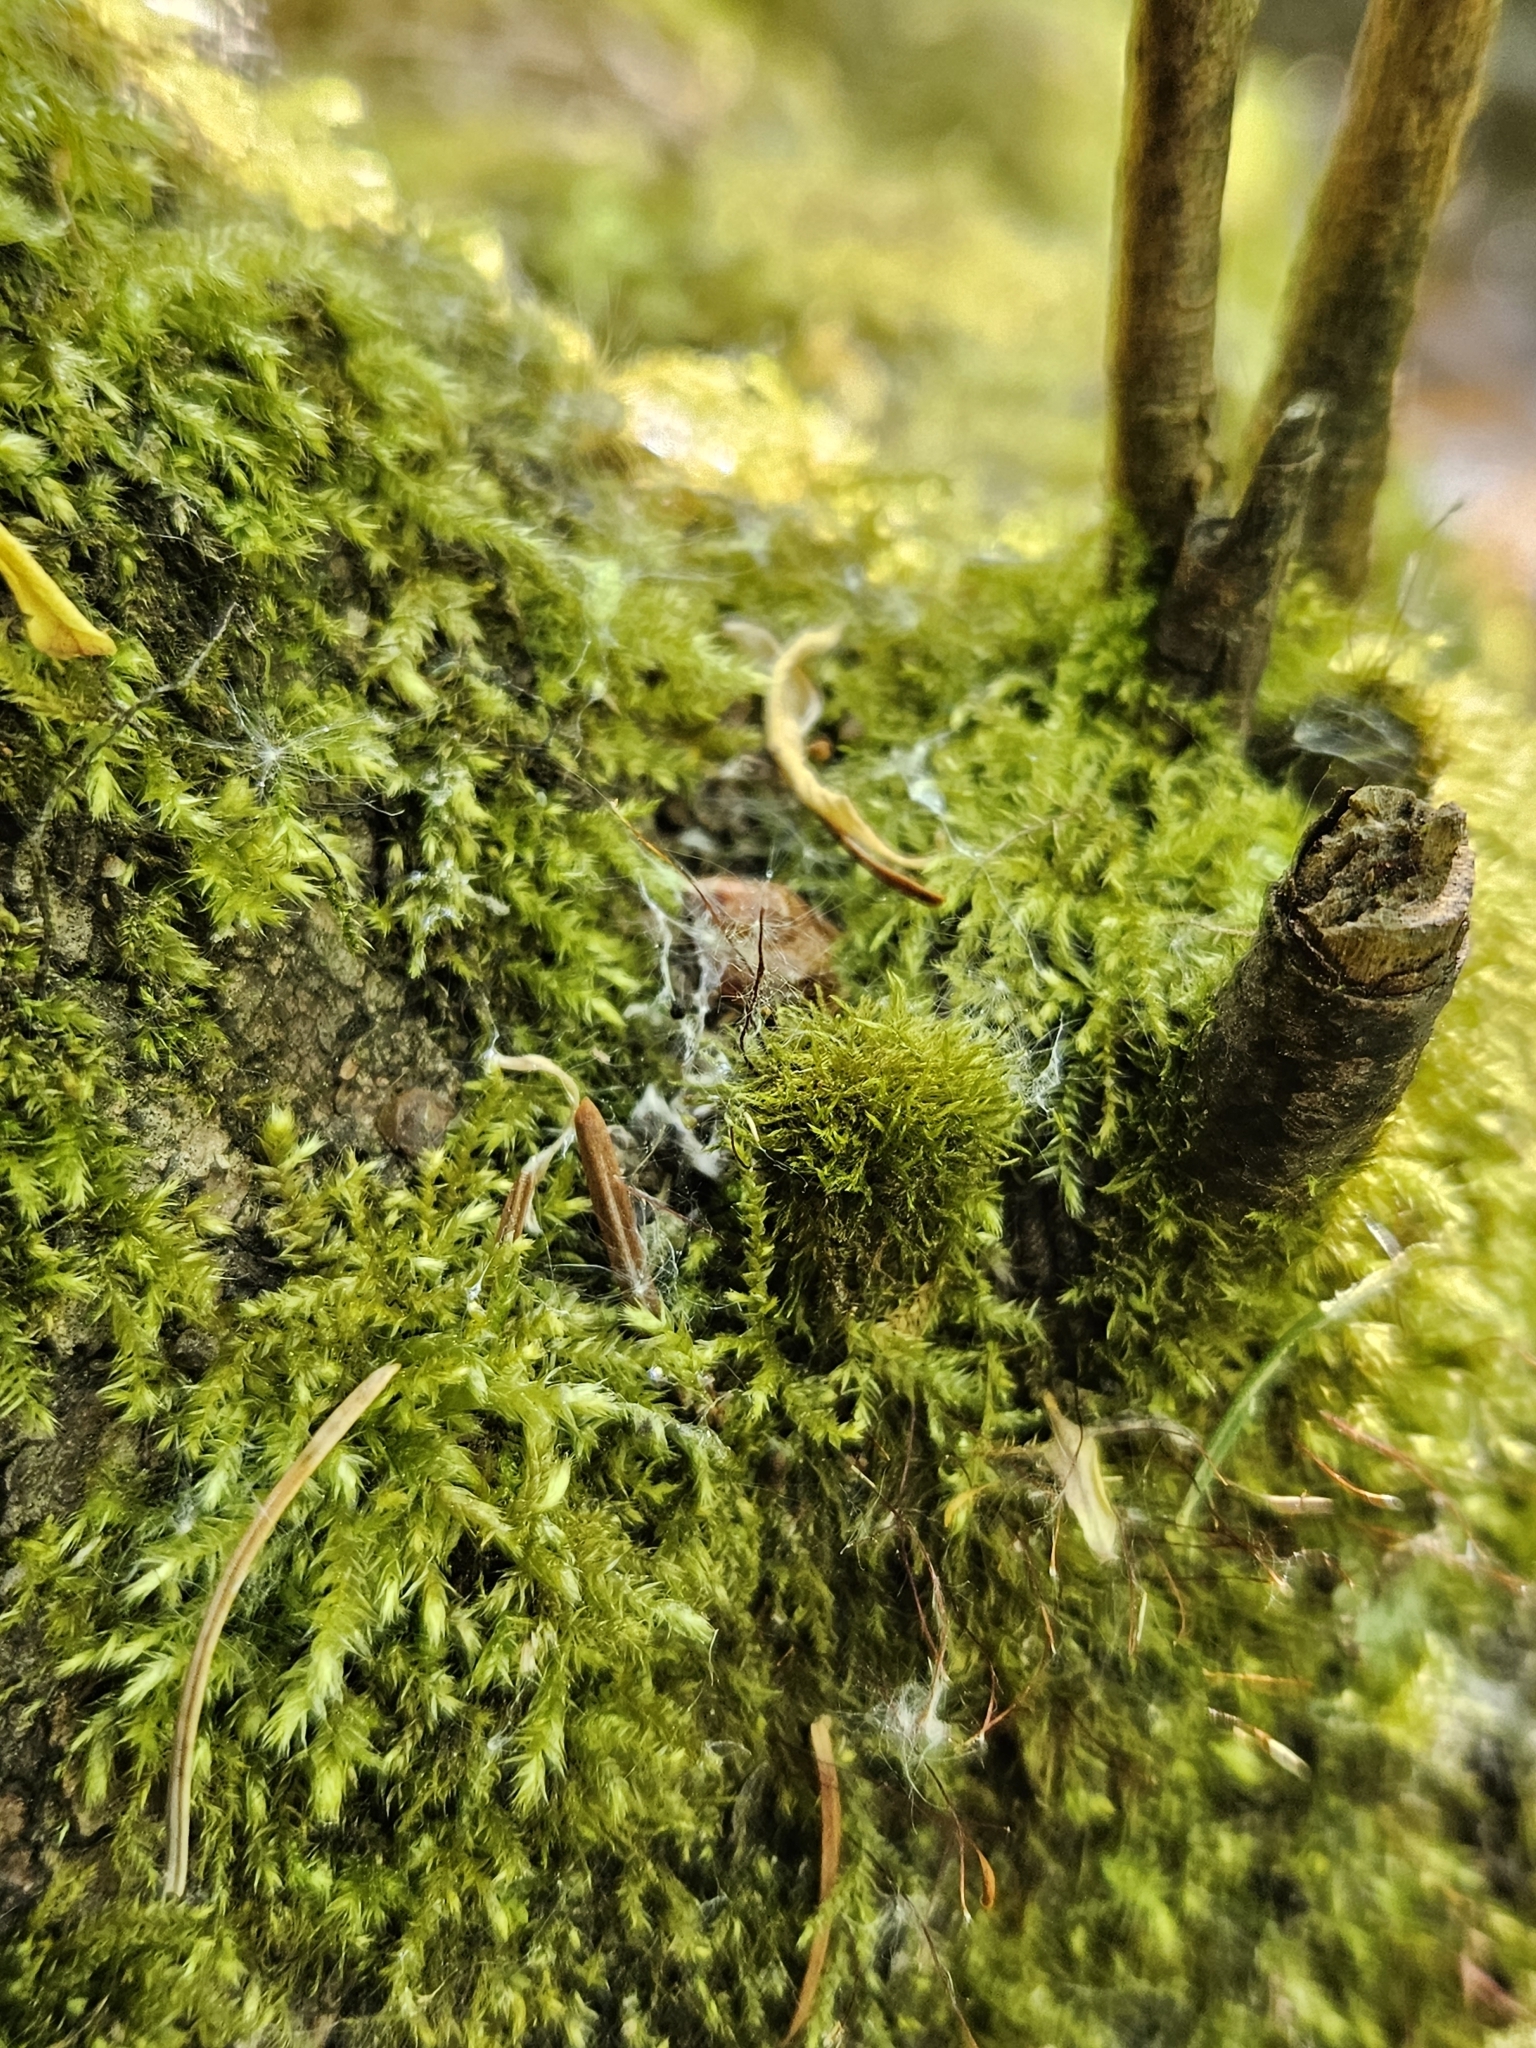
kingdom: Plantae
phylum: Bryophyta
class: Bryopsida
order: Hypnales
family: Amblystegiaceae
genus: Amblystegium
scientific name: Amblystegium serpens
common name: Jurkatzka's feather moss
